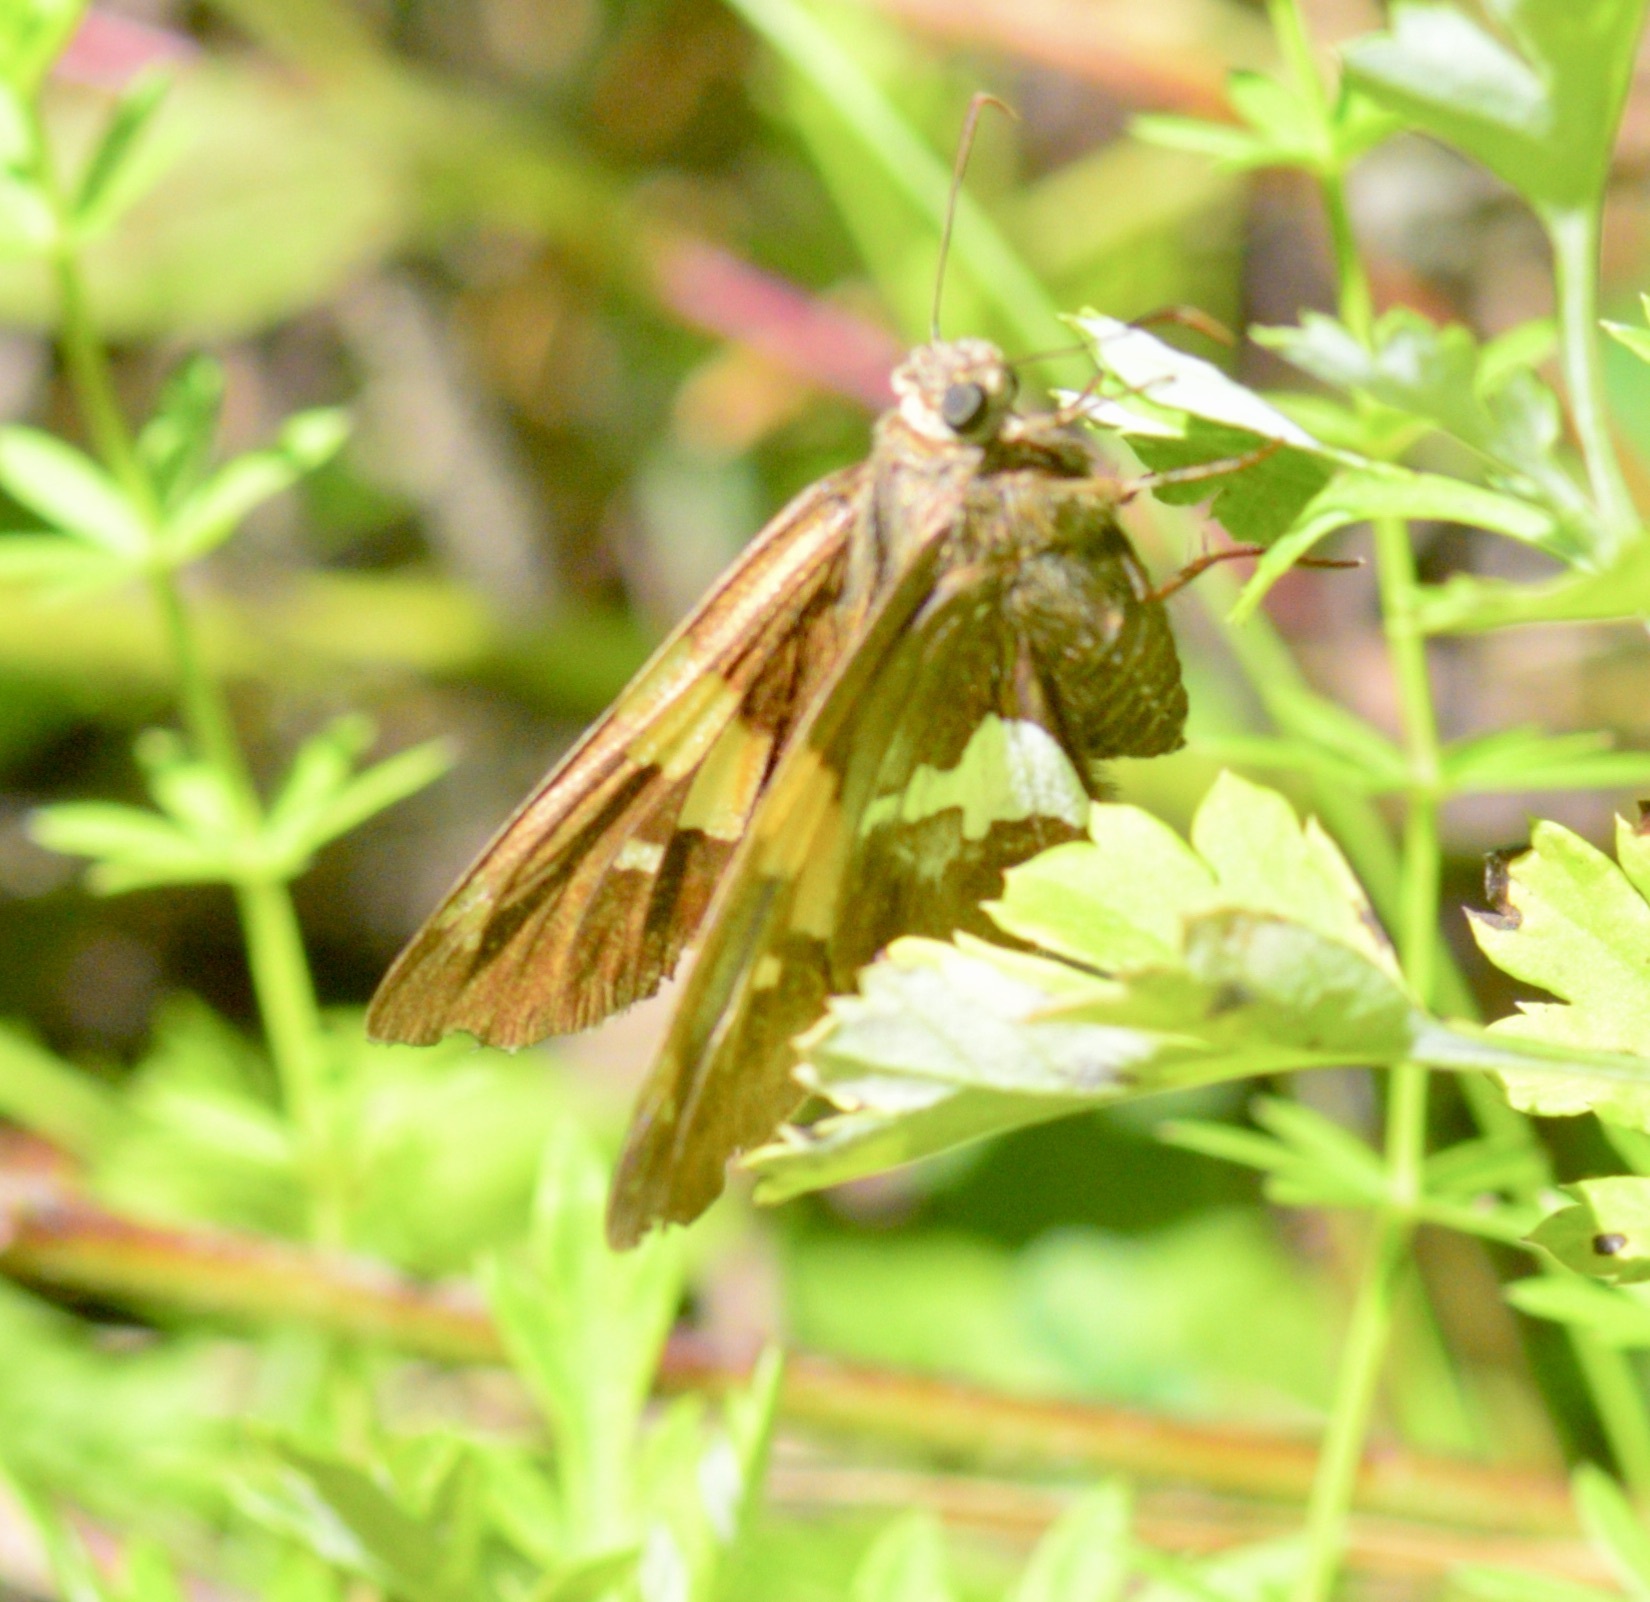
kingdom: Animalia
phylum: Arthropoda
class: Insecta
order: Lepidoptera
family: Hesperiidae
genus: Epargyreus
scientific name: Epargyreus clarus
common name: Silver-spotted skipper
